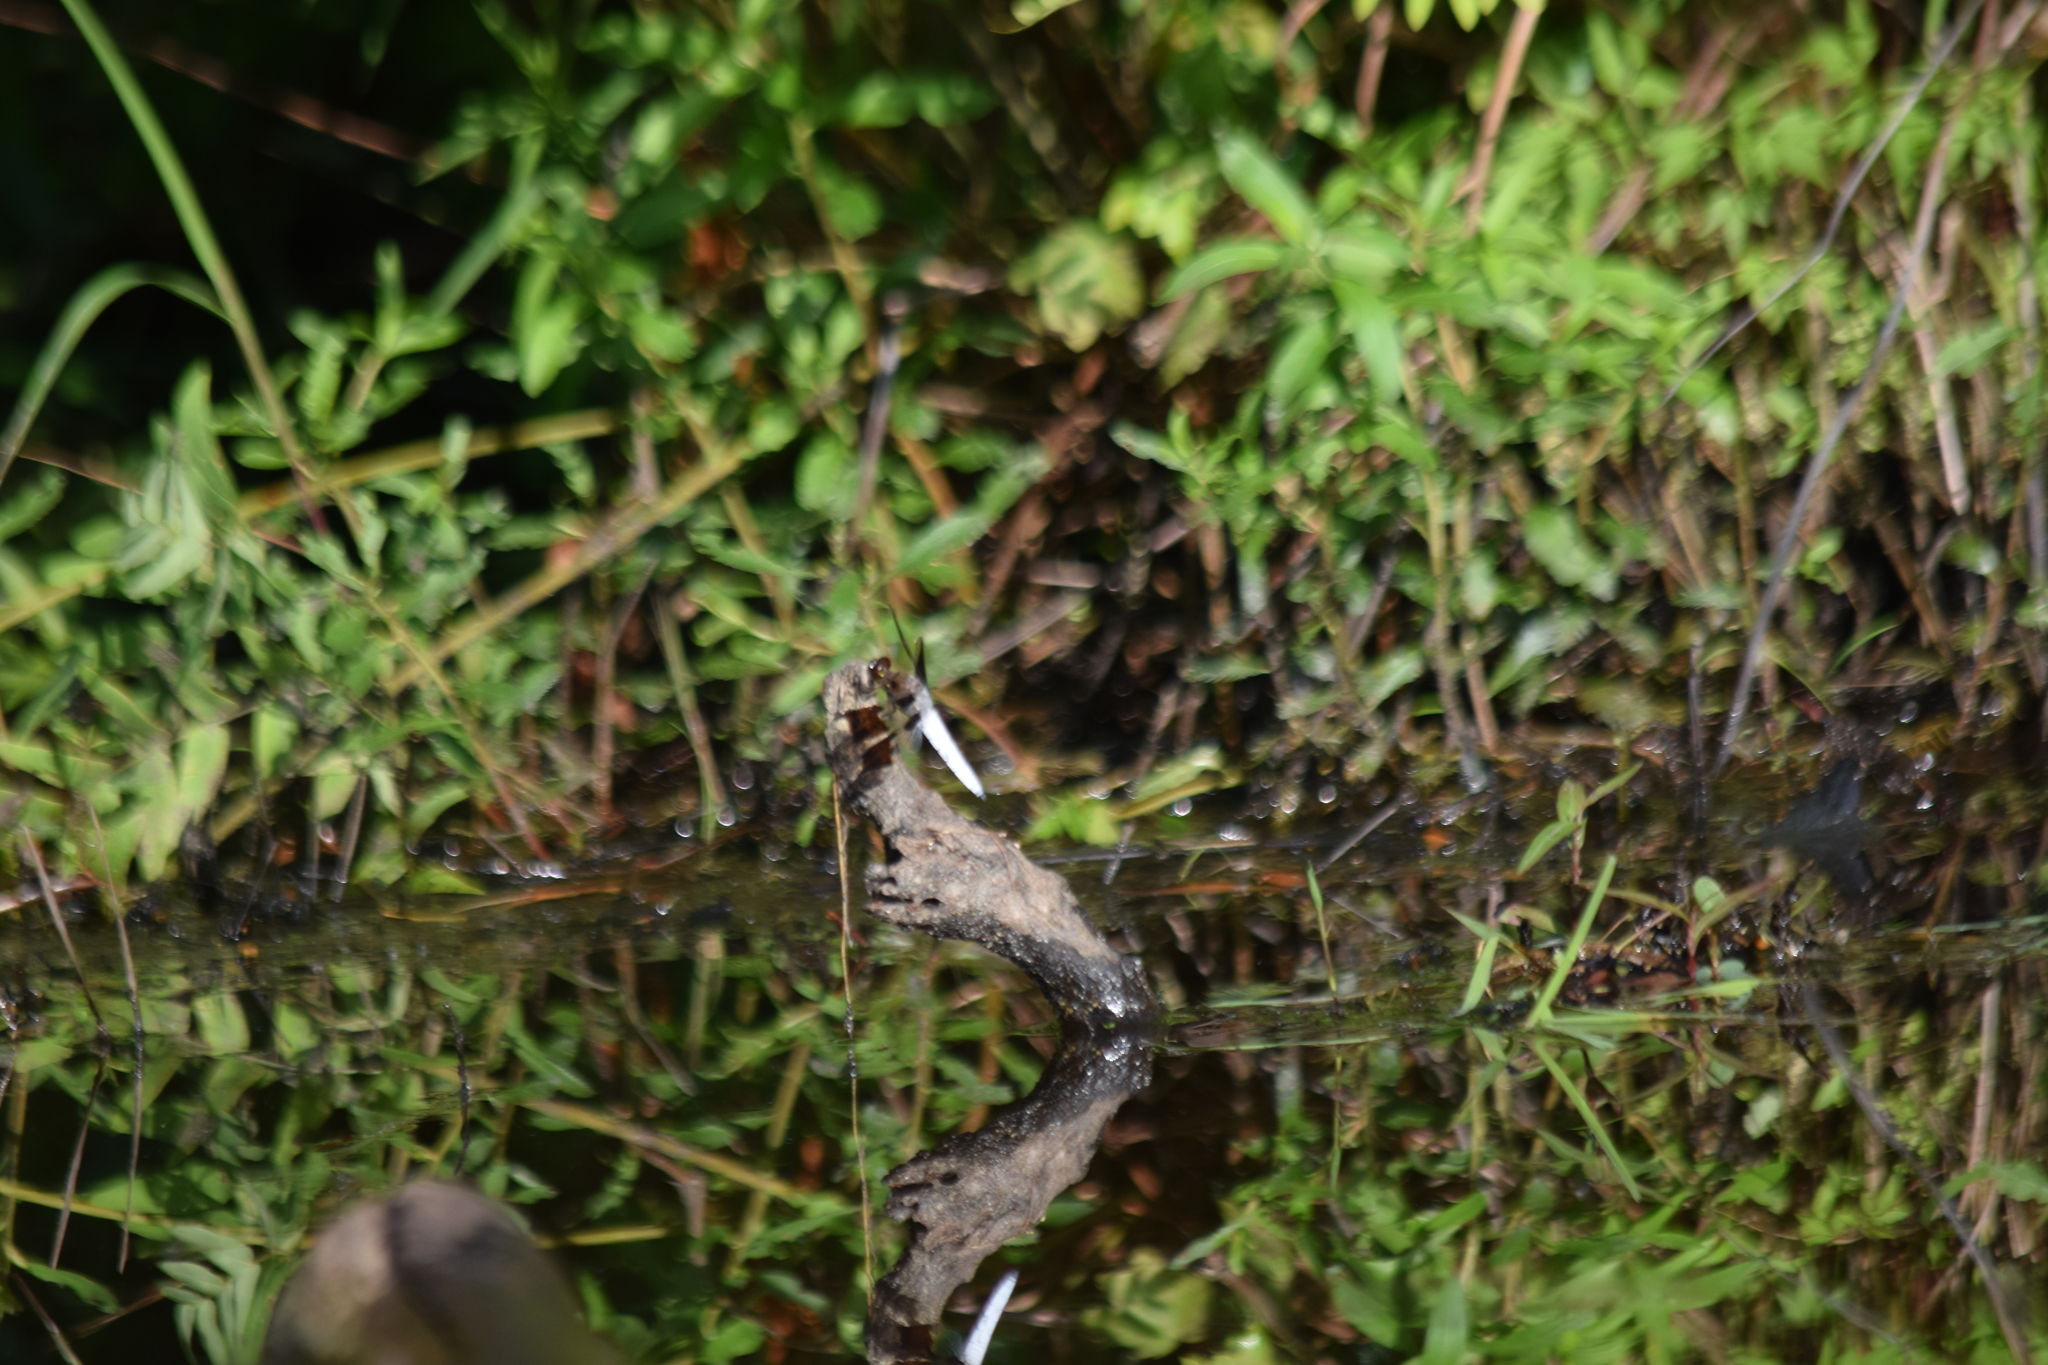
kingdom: Animalia
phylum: Arthropoda
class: Insecta
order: Odonata
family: Libellulidae
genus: Plathemis
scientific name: Plathemis lydia
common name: Common whitetail
